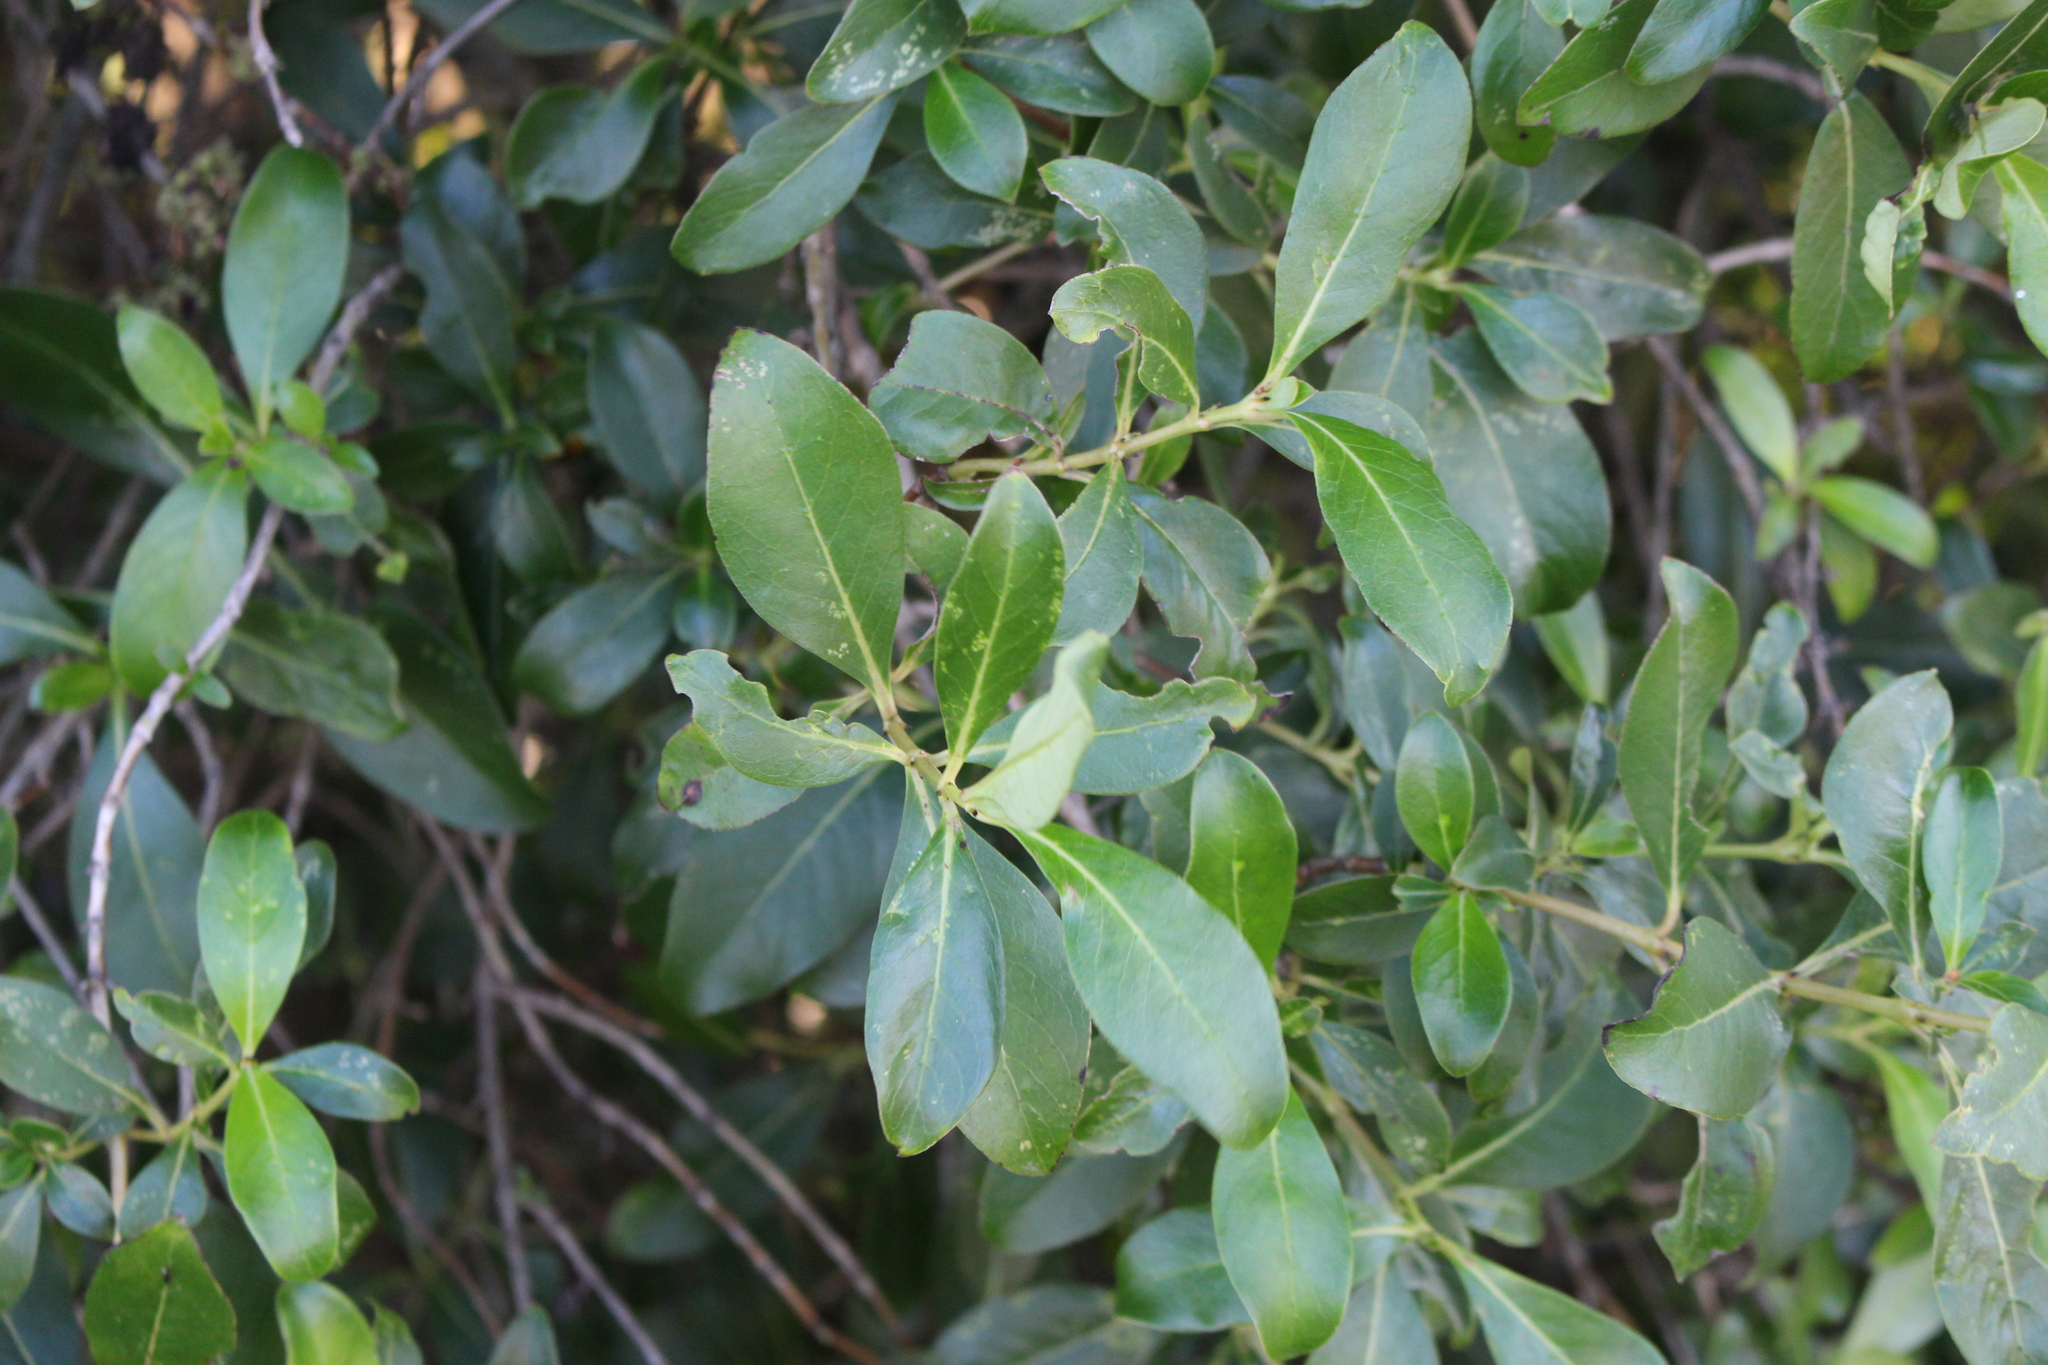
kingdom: Plantae
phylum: Tracheophyta
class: Magnoliopsida
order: Gentianales
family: Rubiaceae
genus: Coprosma
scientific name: Coprosma robusta
